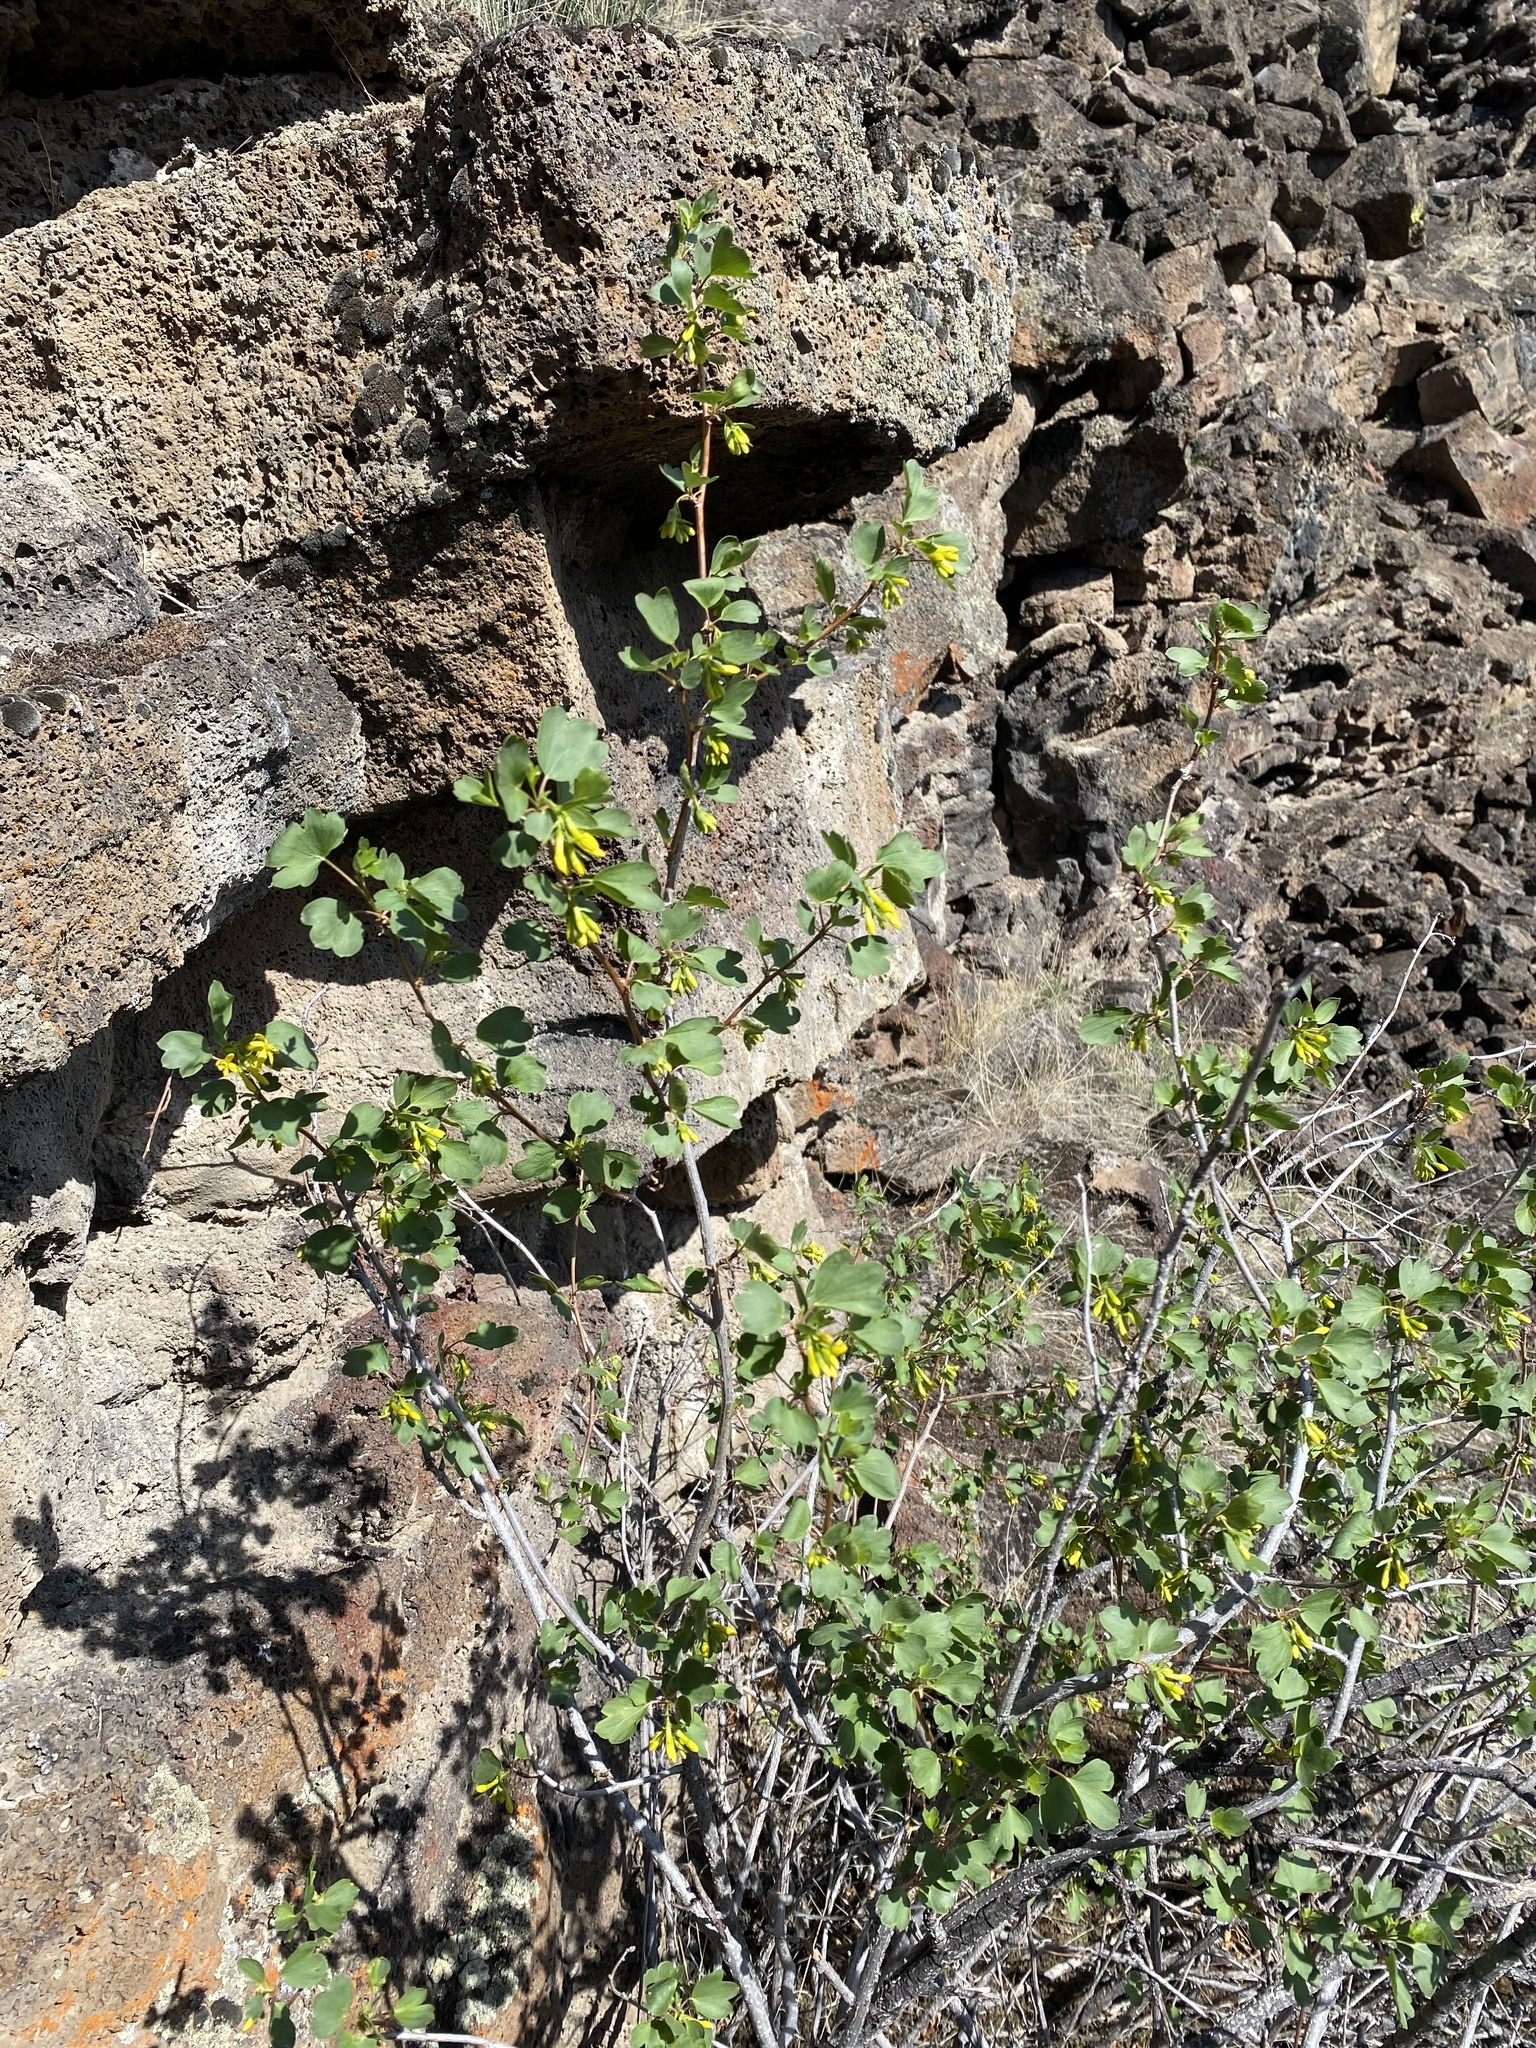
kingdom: Plantae
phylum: Tracheophyta
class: Magnoliopsida
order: Saxifragales
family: Grossulariaceae
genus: Ribes
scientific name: Ribes aureum
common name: Golden currant
